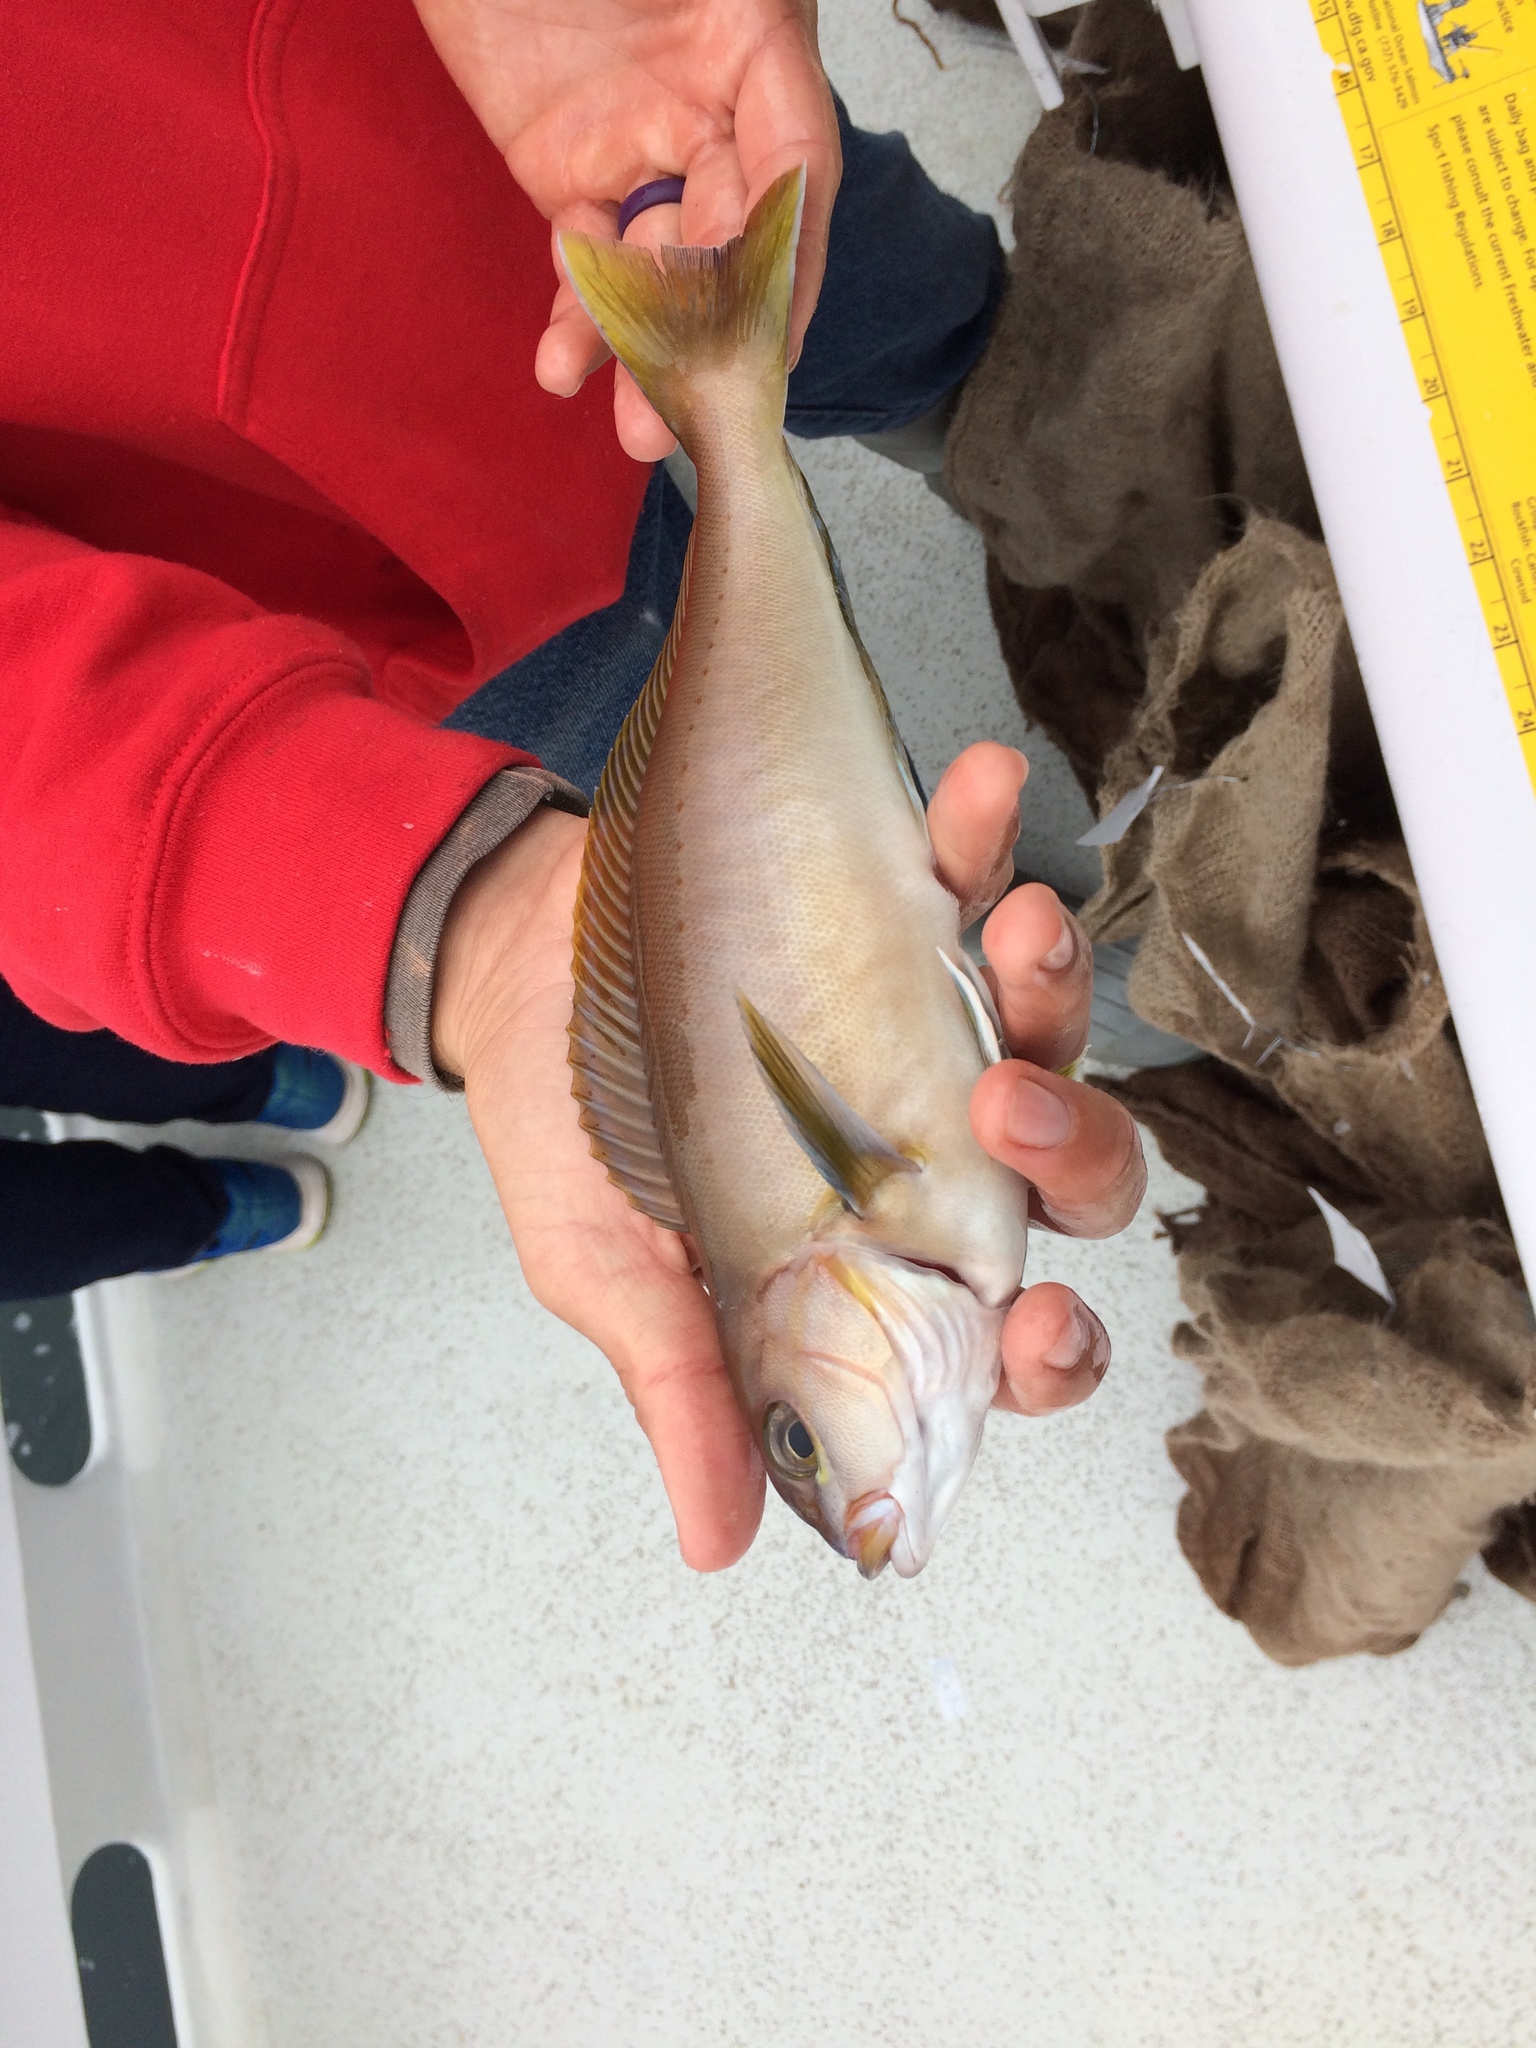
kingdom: Animalia
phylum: Chordata
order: Perciformes
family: Malacanthidae
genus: Caulolatilus
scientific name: Caulolatilus princeps
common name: Ocean whitefish
